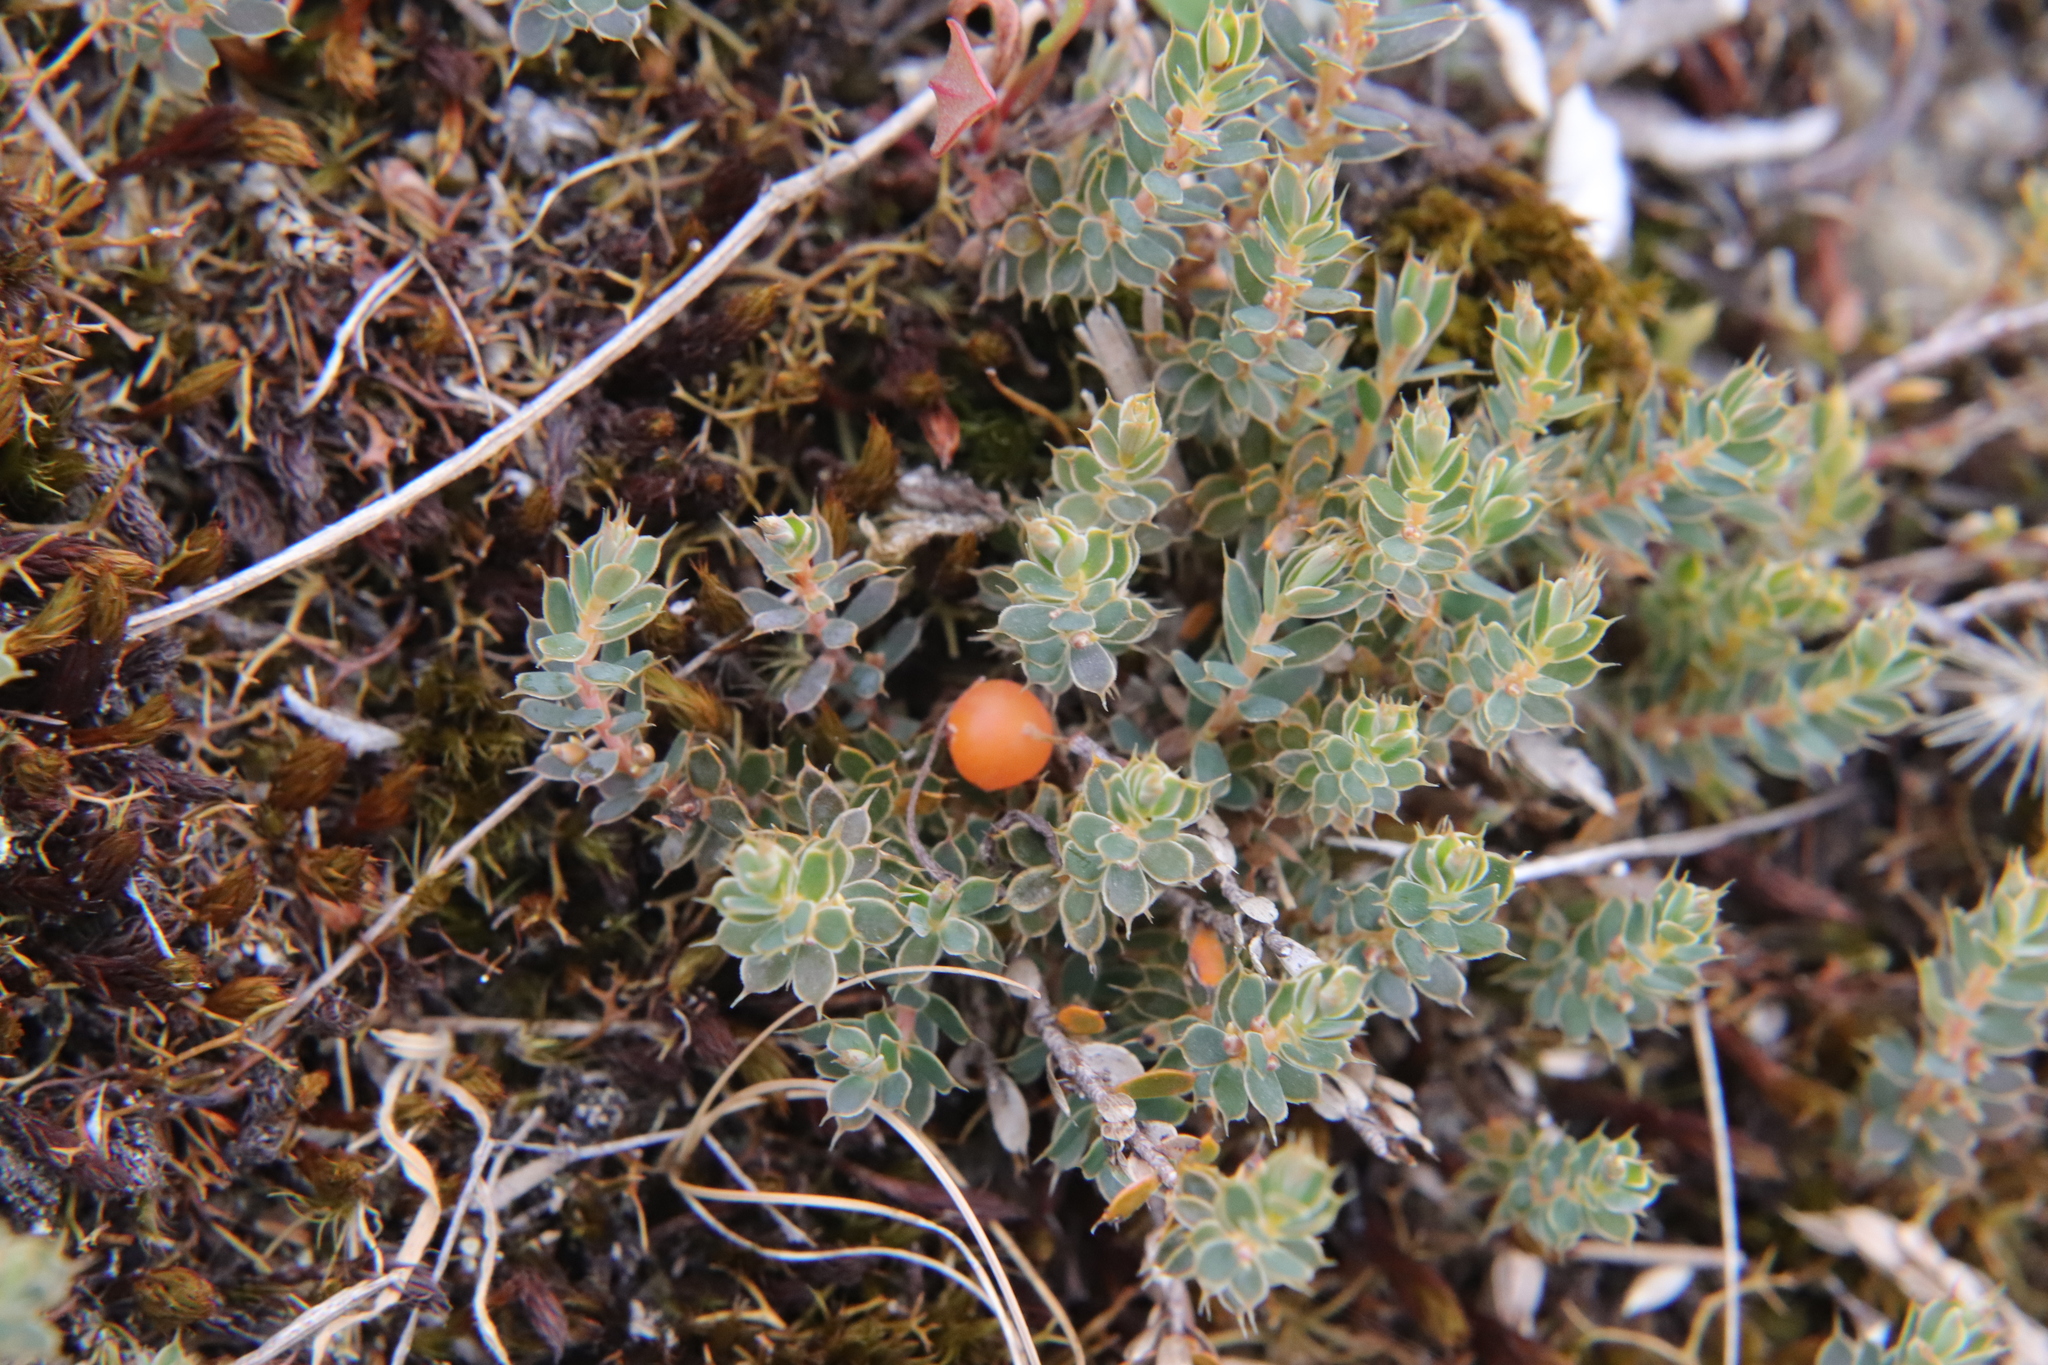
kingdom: Plantae
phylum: Tracheophyta
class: Magnoliopsida
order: Ericales
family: Ericaceae
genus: Styphelia
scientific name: Styphelia nesophila
